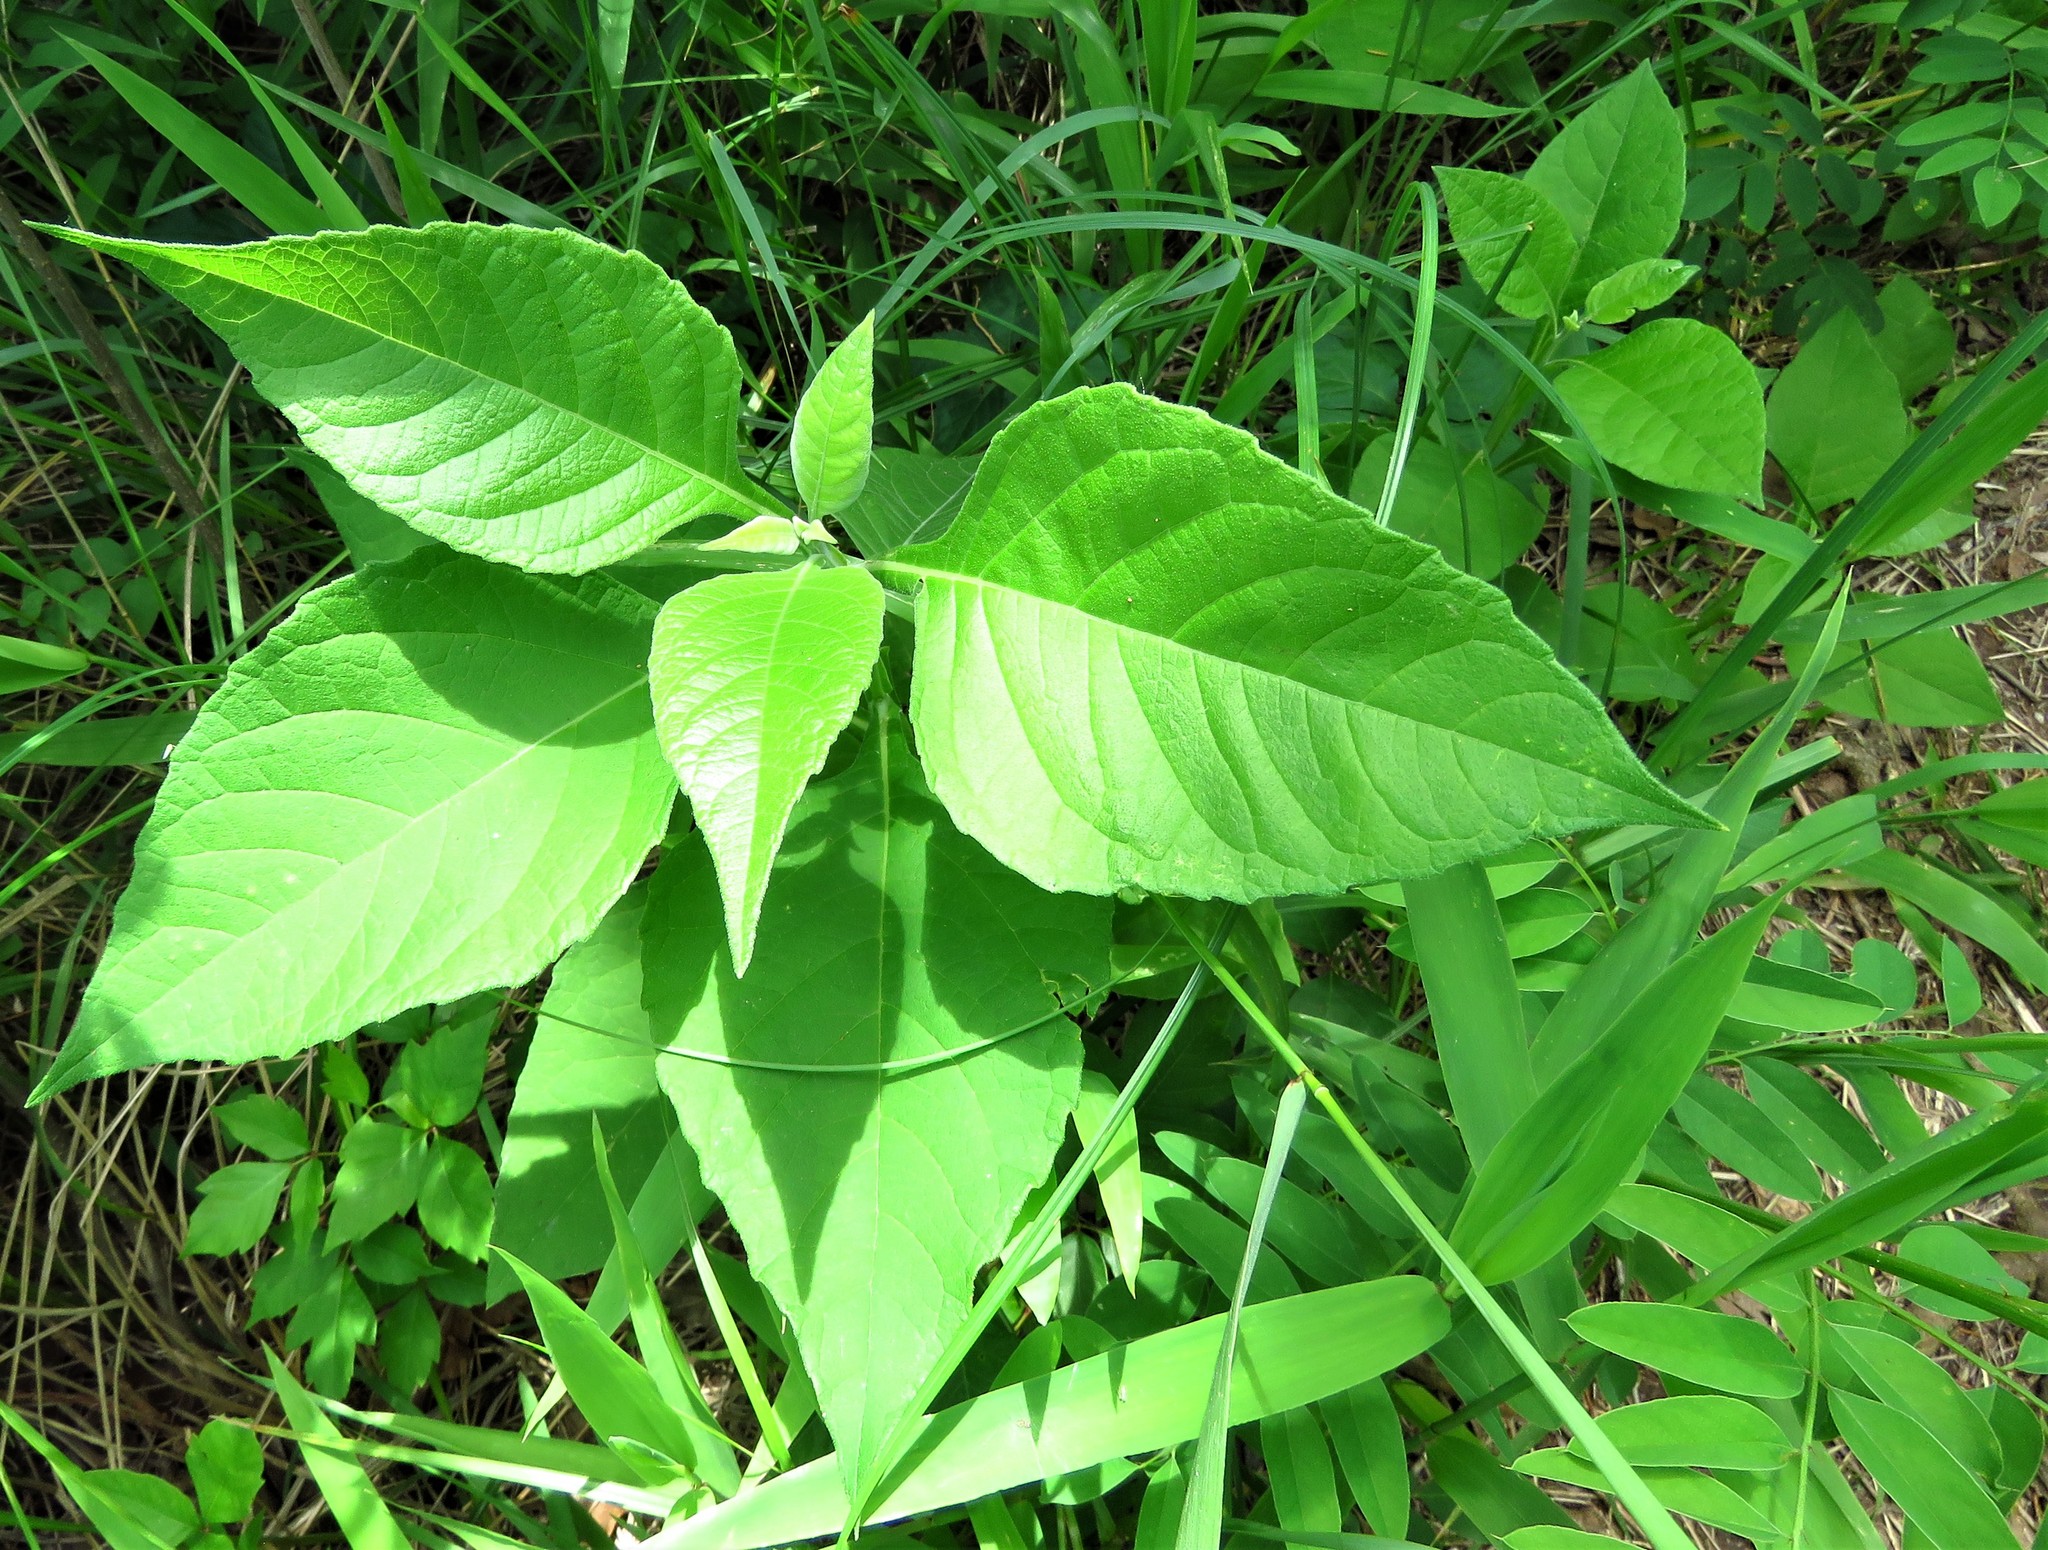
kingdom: Plantae
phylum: Tracheophyta
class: Magnoliopsida
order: Asterales
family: Asteraceae
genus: Verbesina
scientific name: Verbesina virginica
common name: Frostweed
